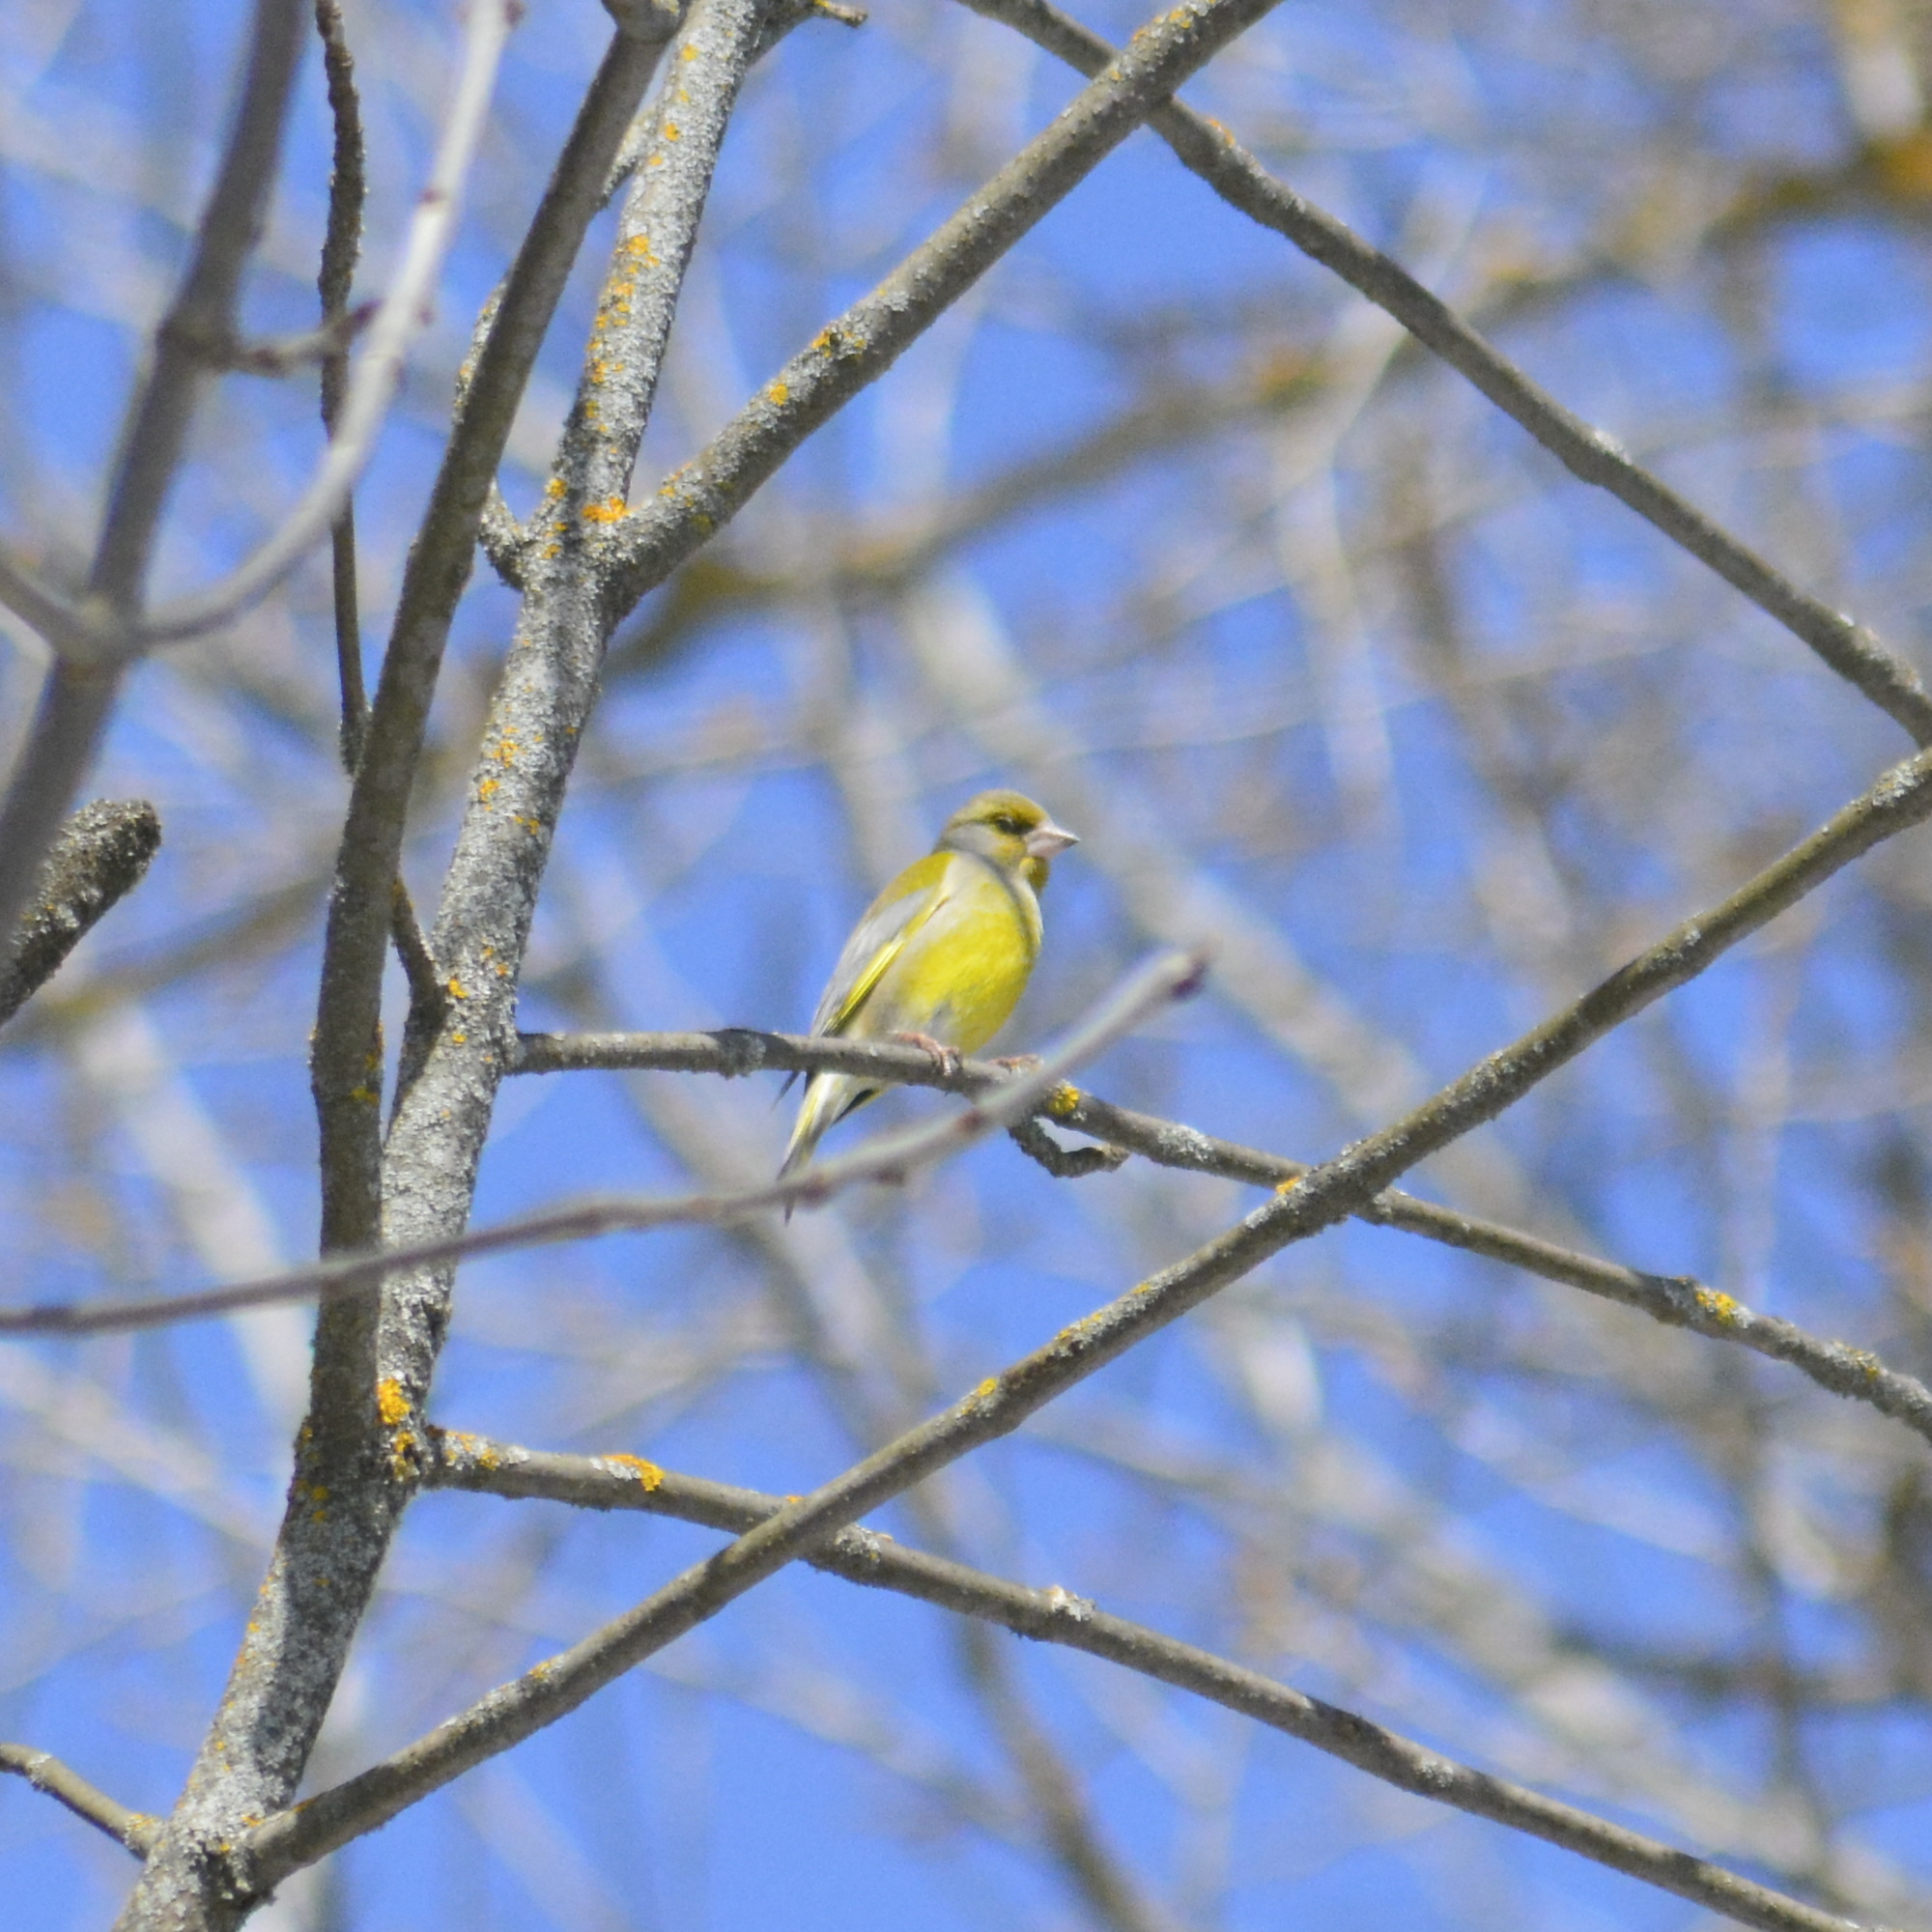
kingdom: Plantae
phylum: Tracheophyta
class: Liliopsida
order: Poales
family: Poaceae
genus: Chloris
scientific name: Chloris chloris
